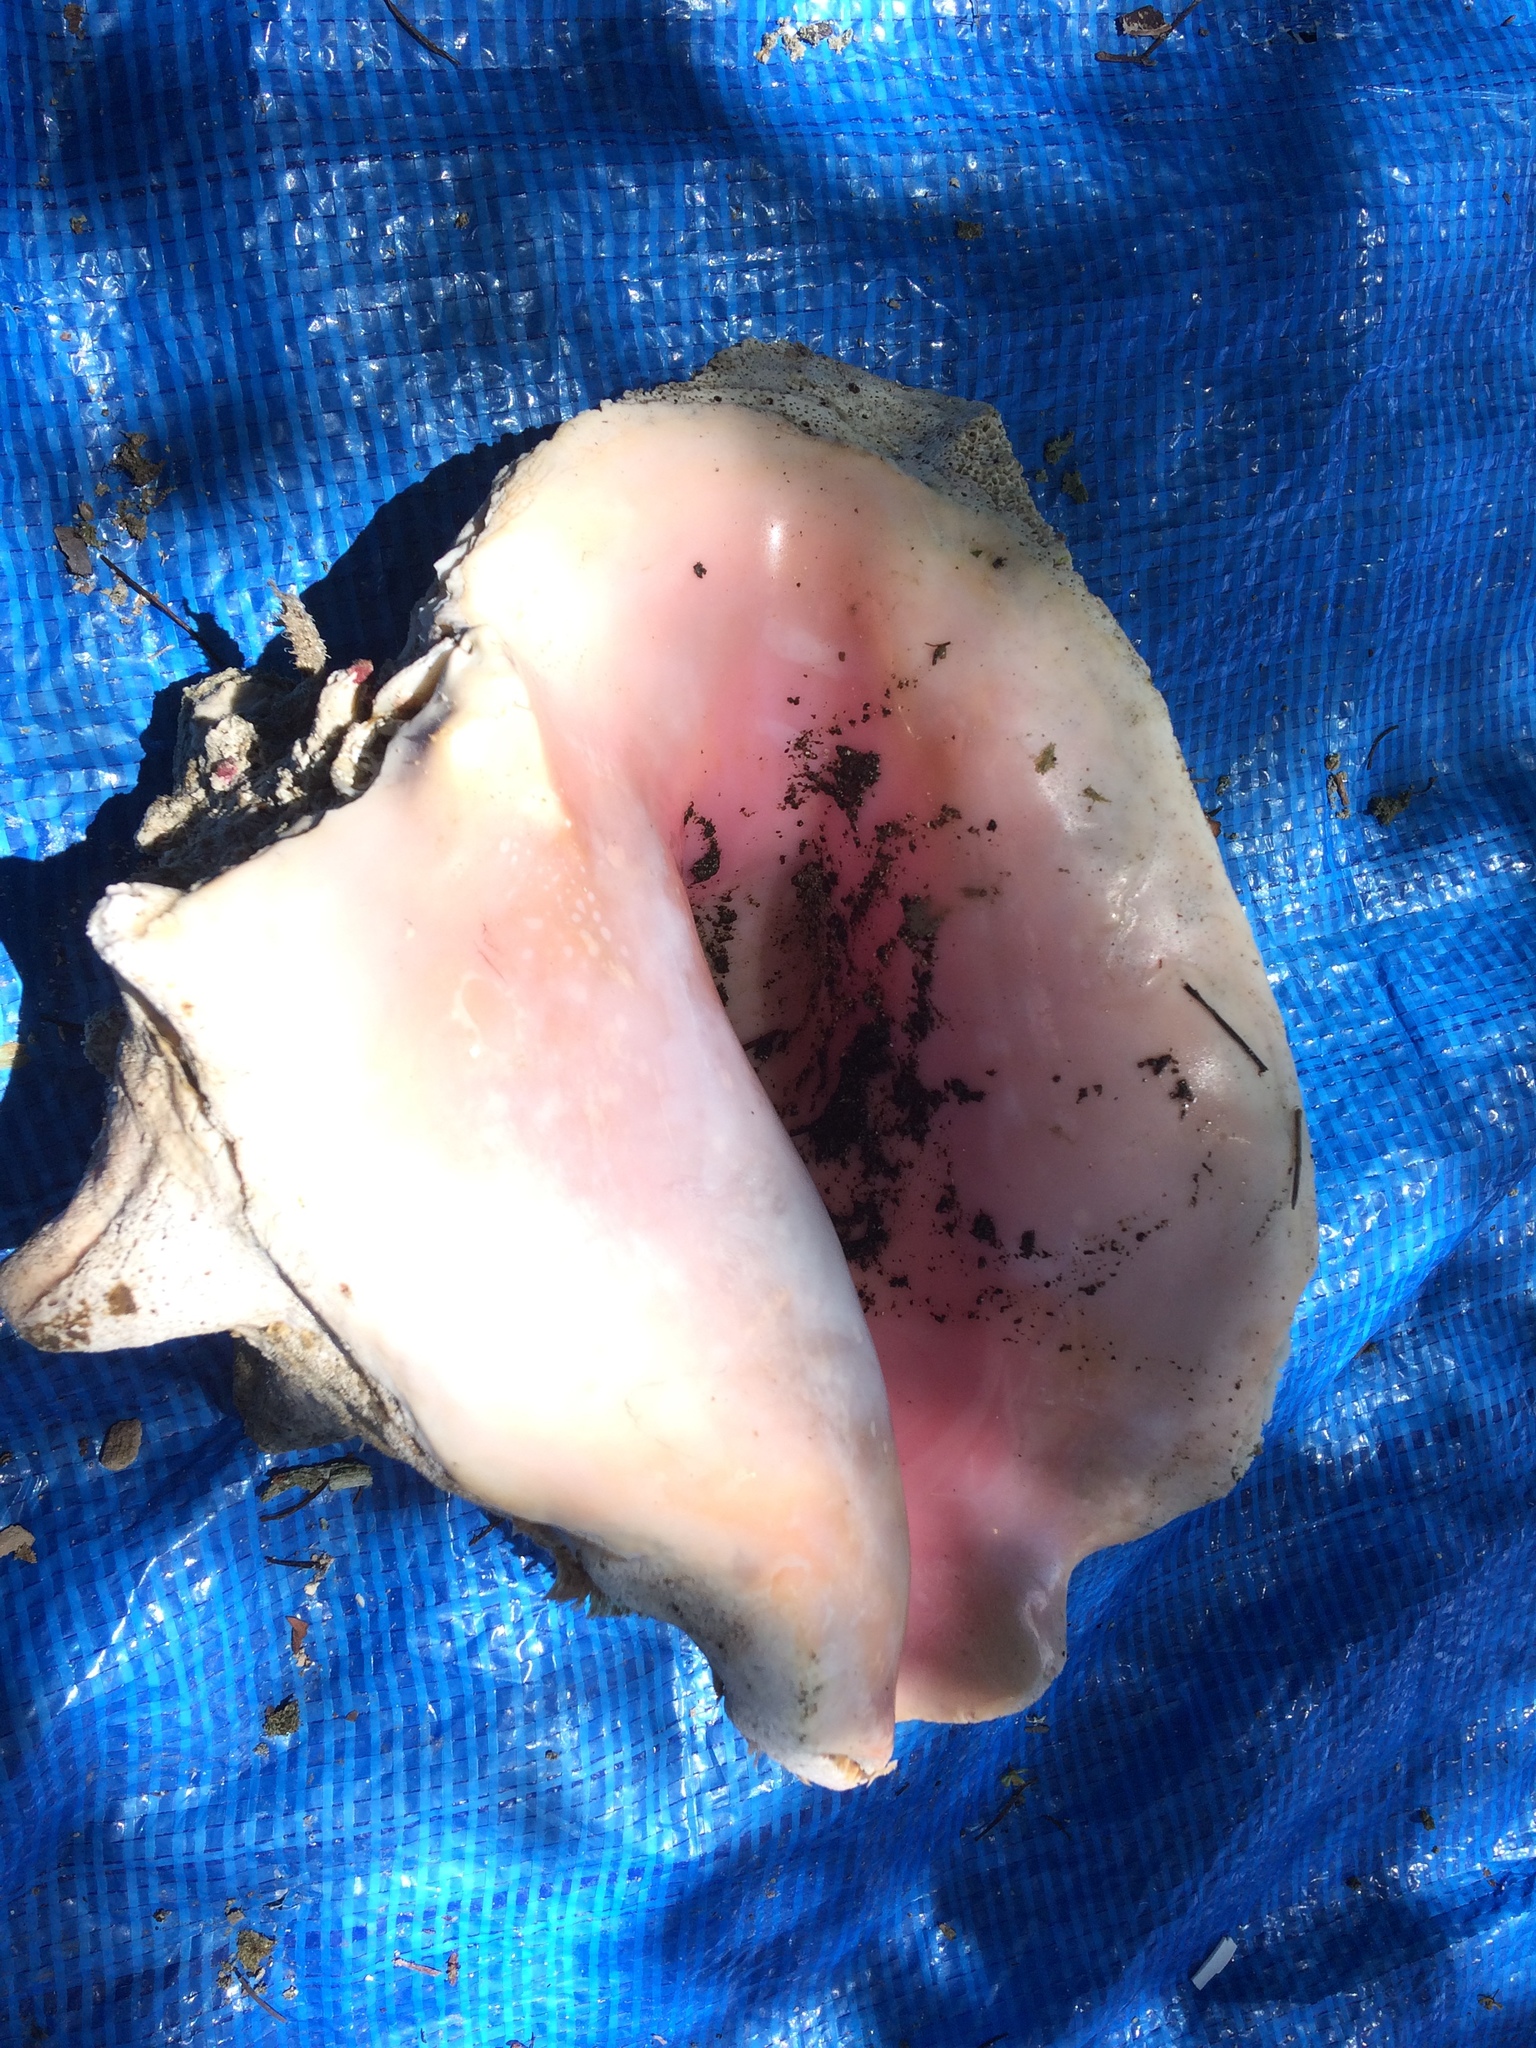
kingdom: Animalia
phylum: Mollusca
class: Gastropoda
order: Littorinimorpha
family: Strombidae
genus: Aliger
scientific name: Aliger gigas
